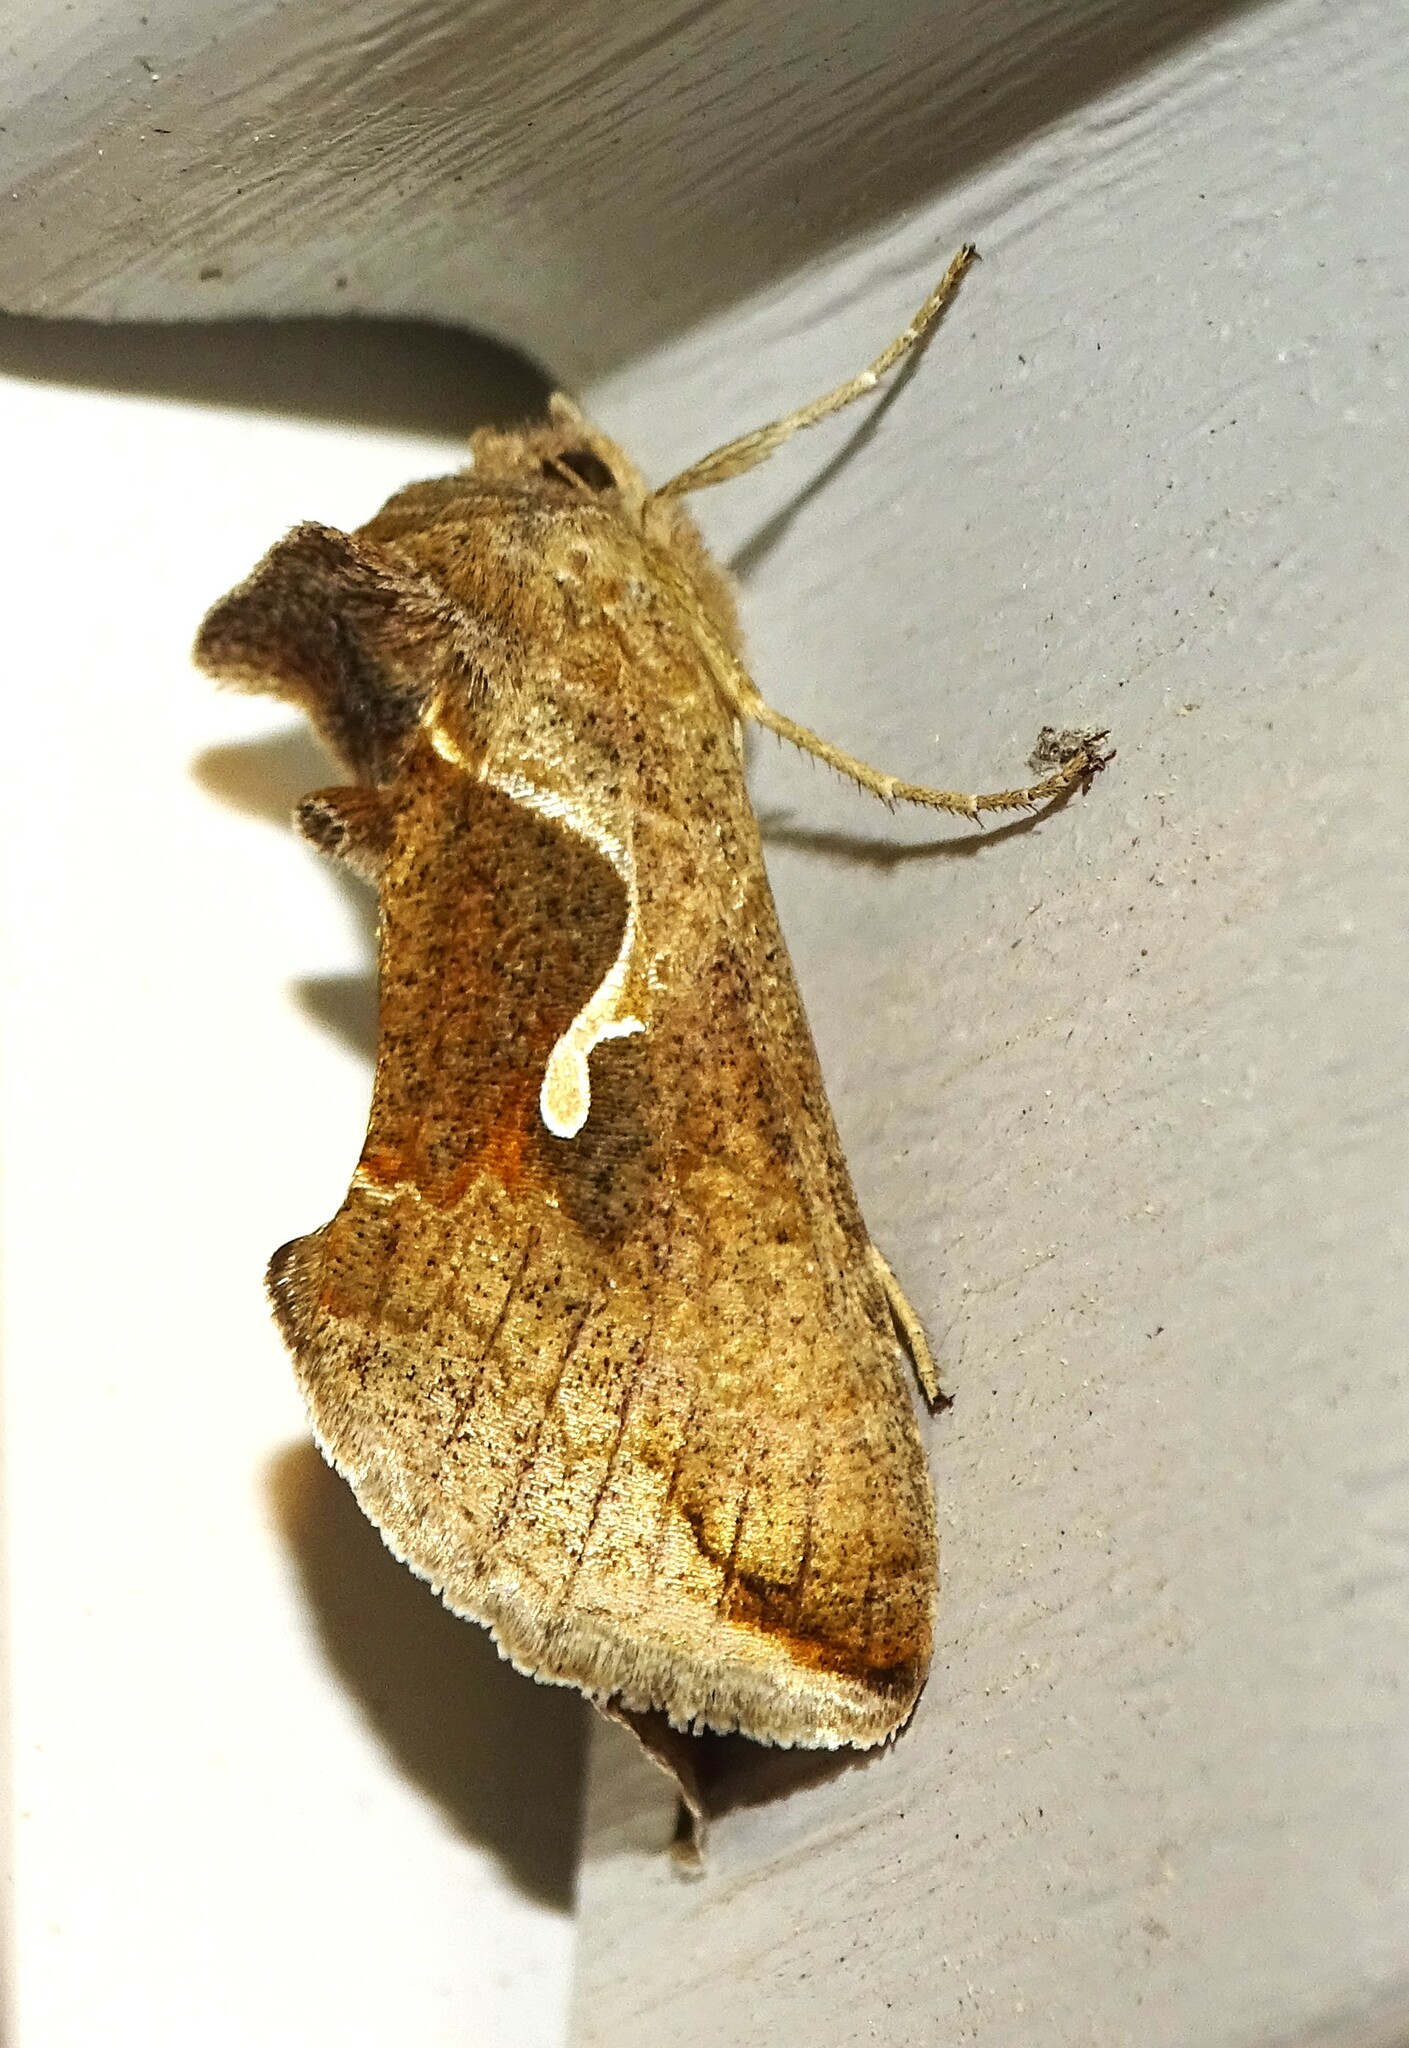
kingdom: Animalia
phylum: Arthropoda
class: Insecta
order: Lepidoptera
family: Noctuidae
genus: Anagrapha
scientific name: Anagrapha falcifera
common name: Celery looper
